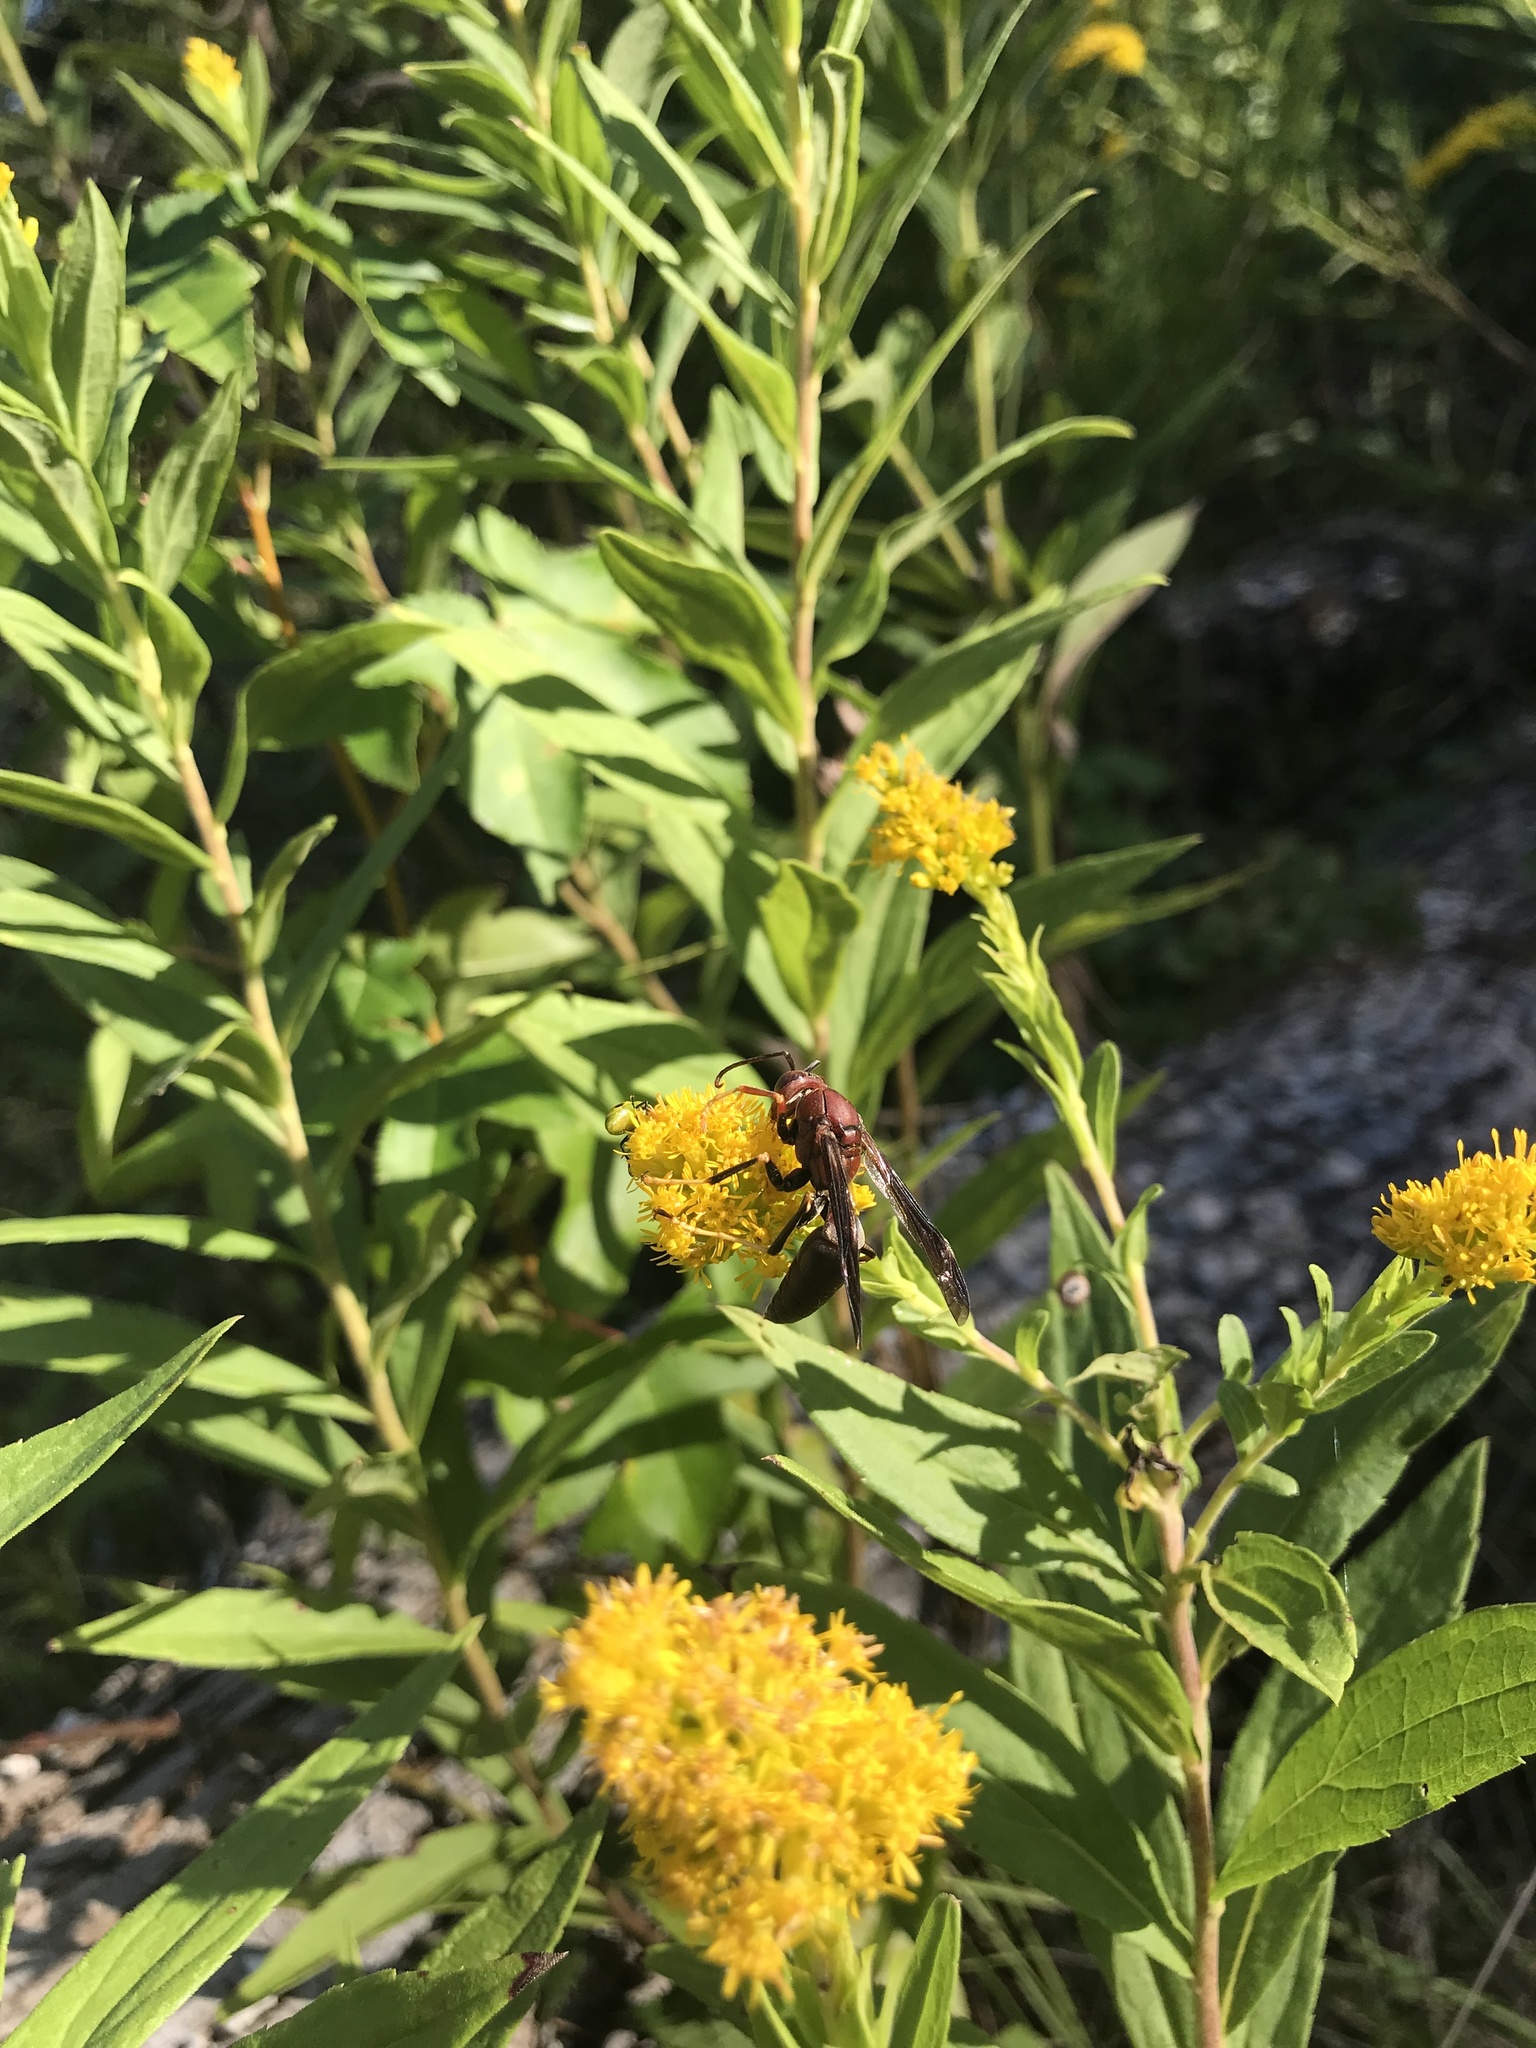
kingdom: Animalia
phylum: Arthropoda
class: Insecta
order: Hymenoptera
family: Eumenidae
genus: Polistes
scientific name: Polistes metricus
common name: Metric paper wasp
